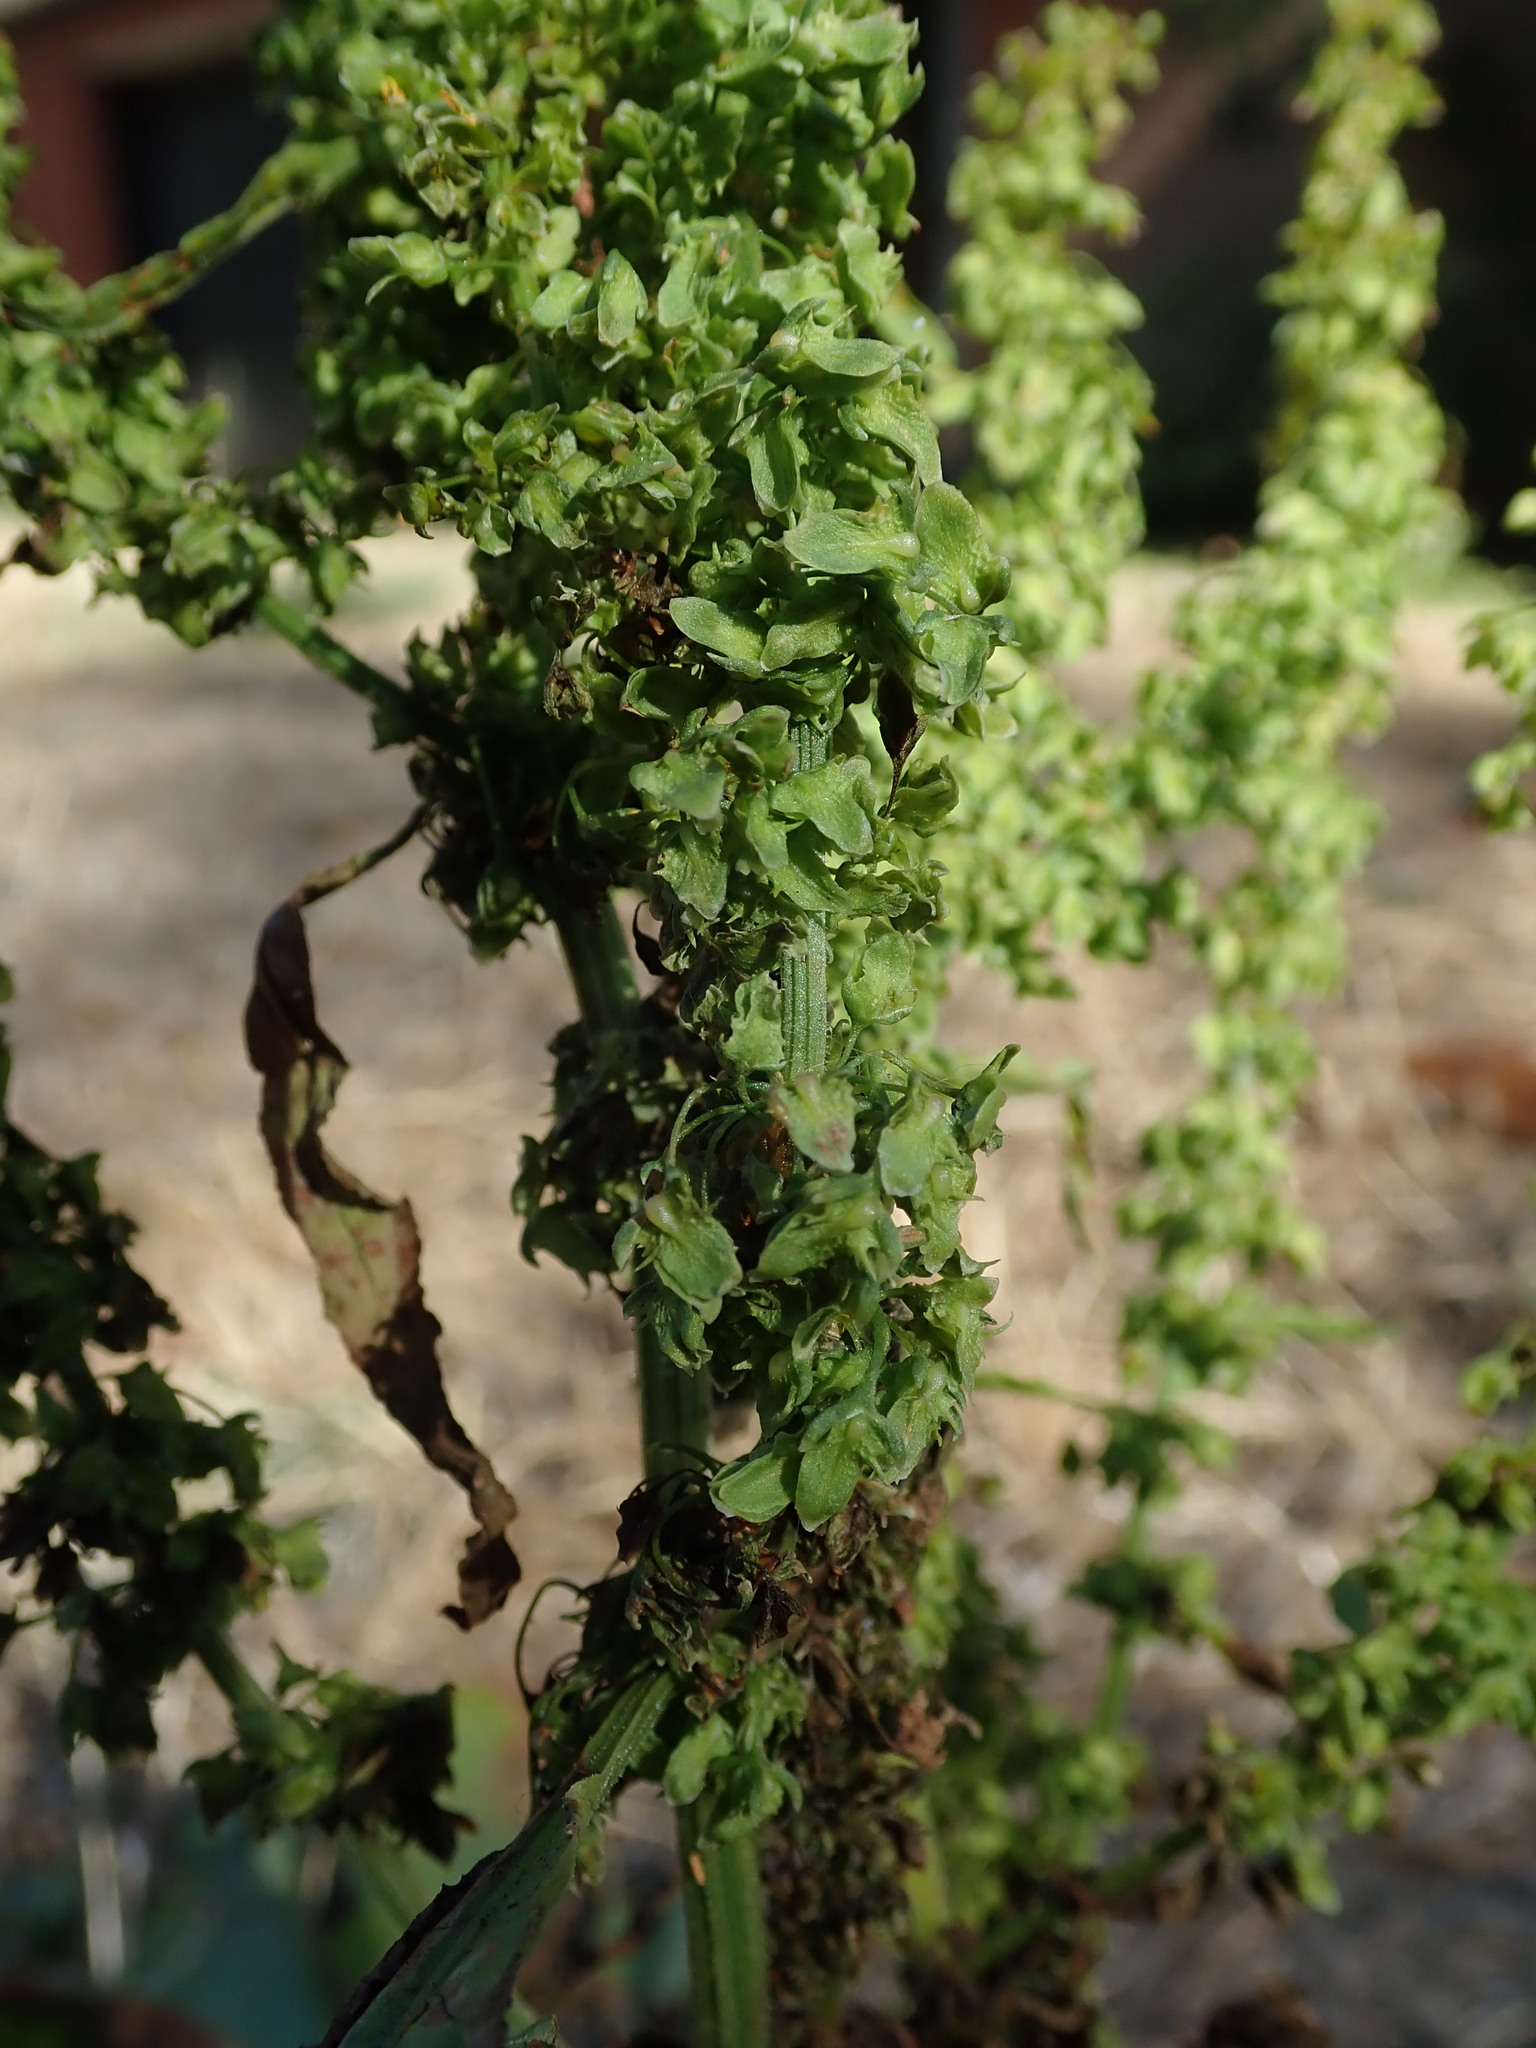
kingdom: Plantae
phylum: Tracheophyta
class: Magnoliopsida
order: Caryophyllales
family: Polygonaceae
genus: Rumex
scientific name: Rumex obtusifolius
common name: Bitter dock
